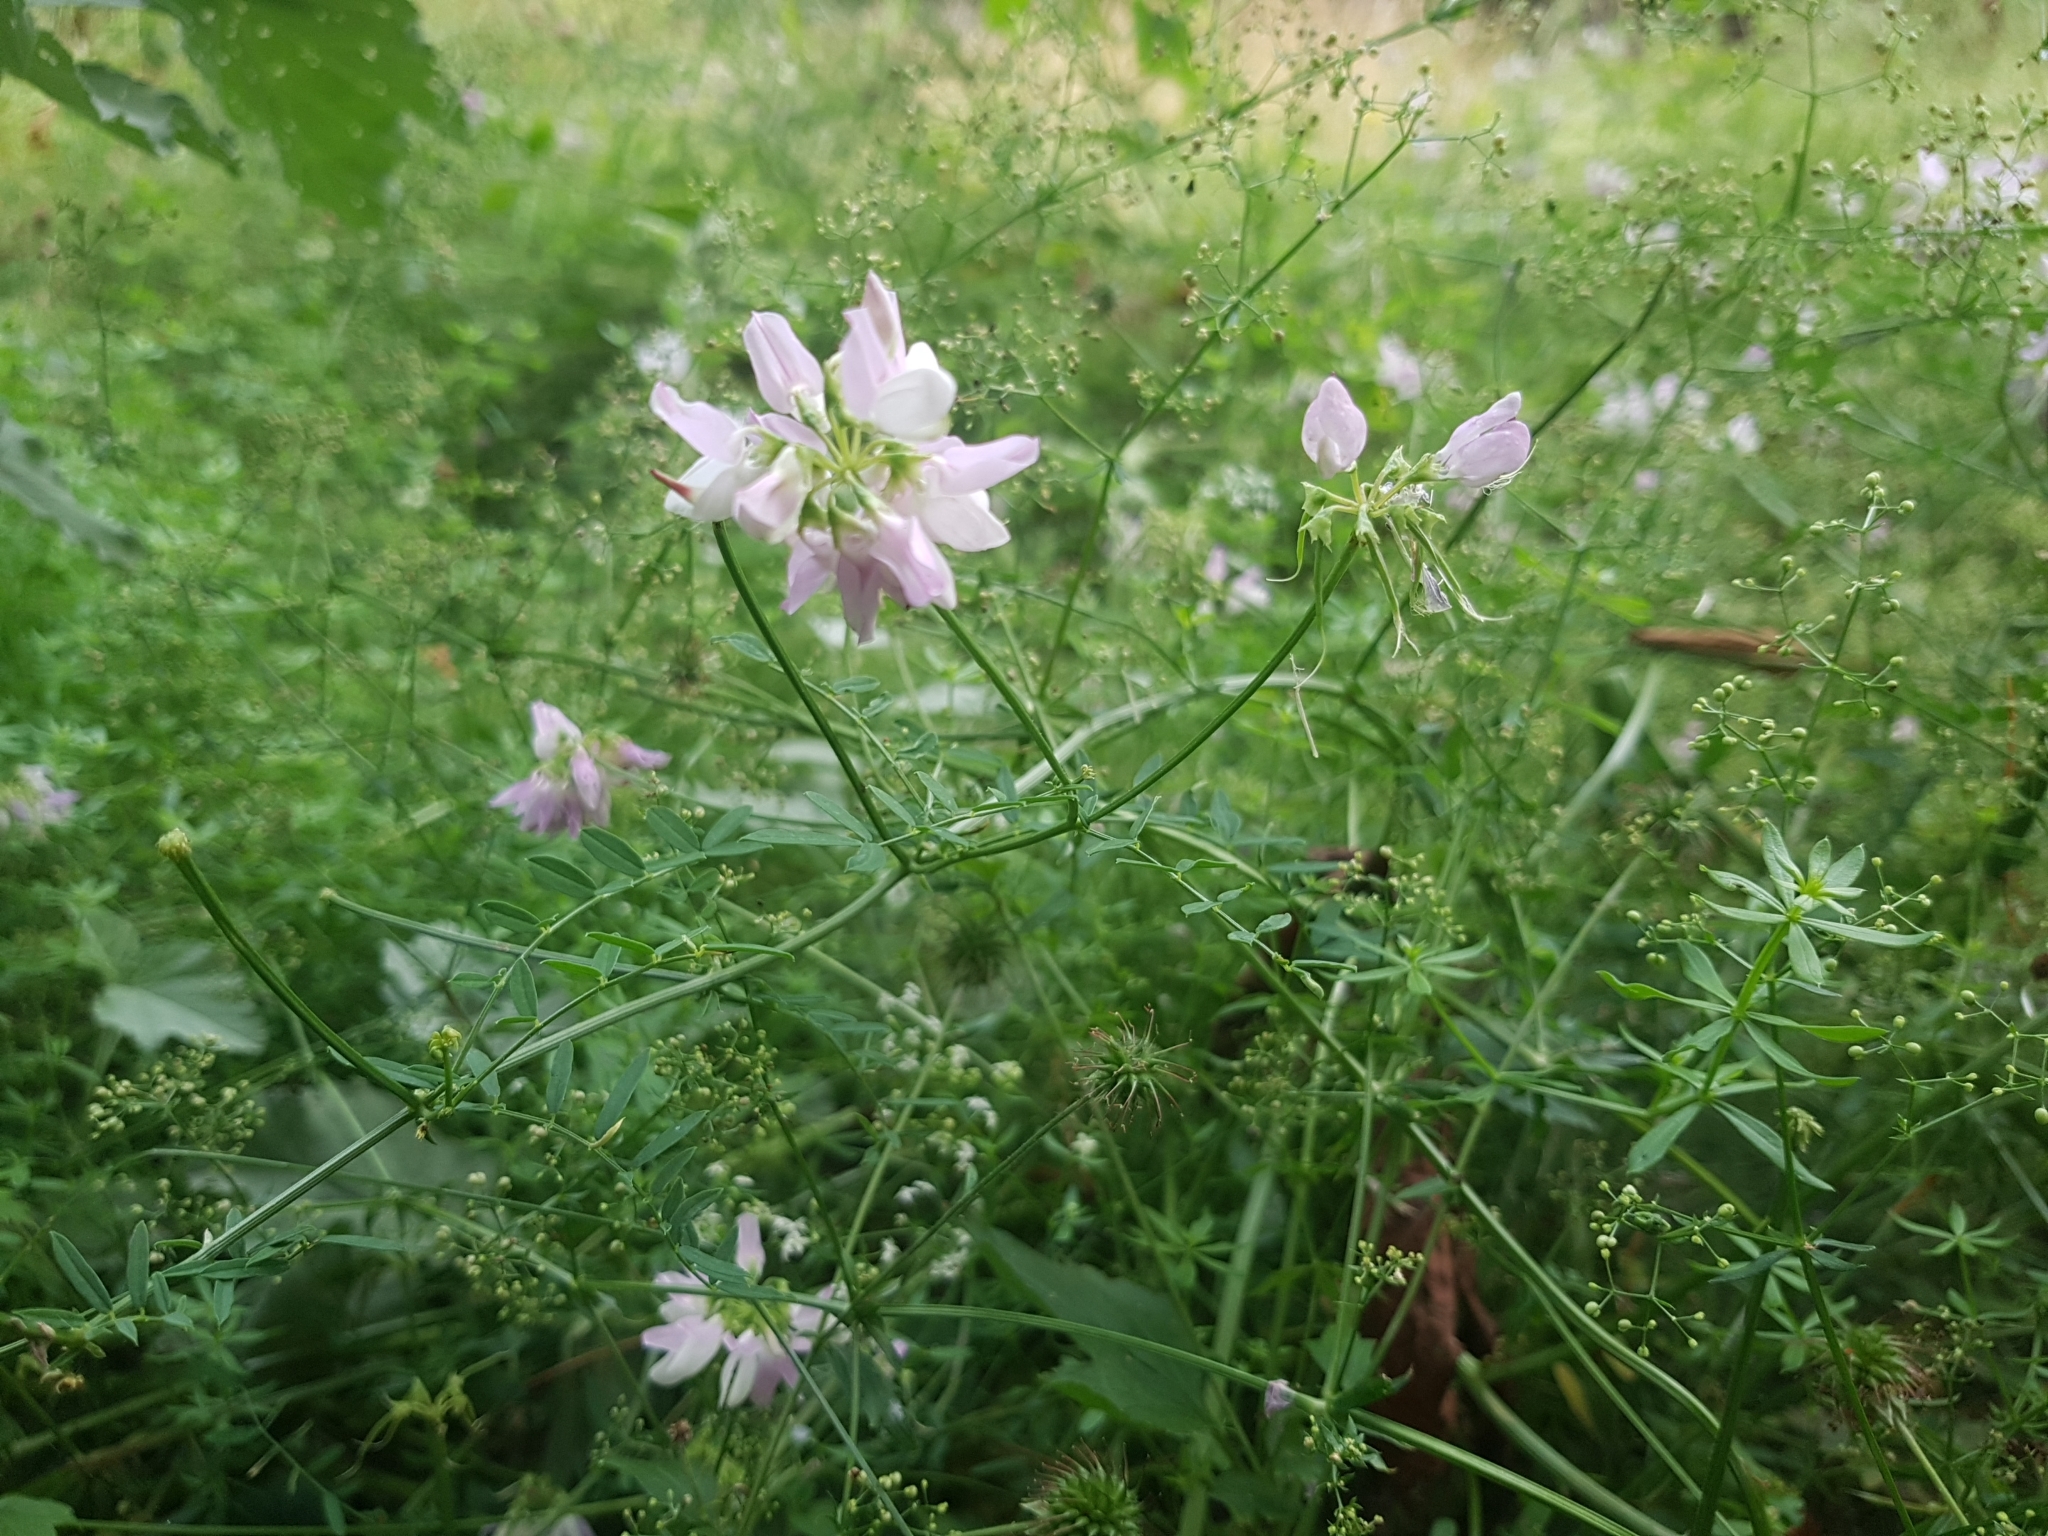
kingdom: Plantae
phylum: Tracheophyta
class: Magnoliopsida
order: Fabales
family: Fabaceae
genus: Coronilla
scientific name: Coronilla varia
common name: Crownvetch
